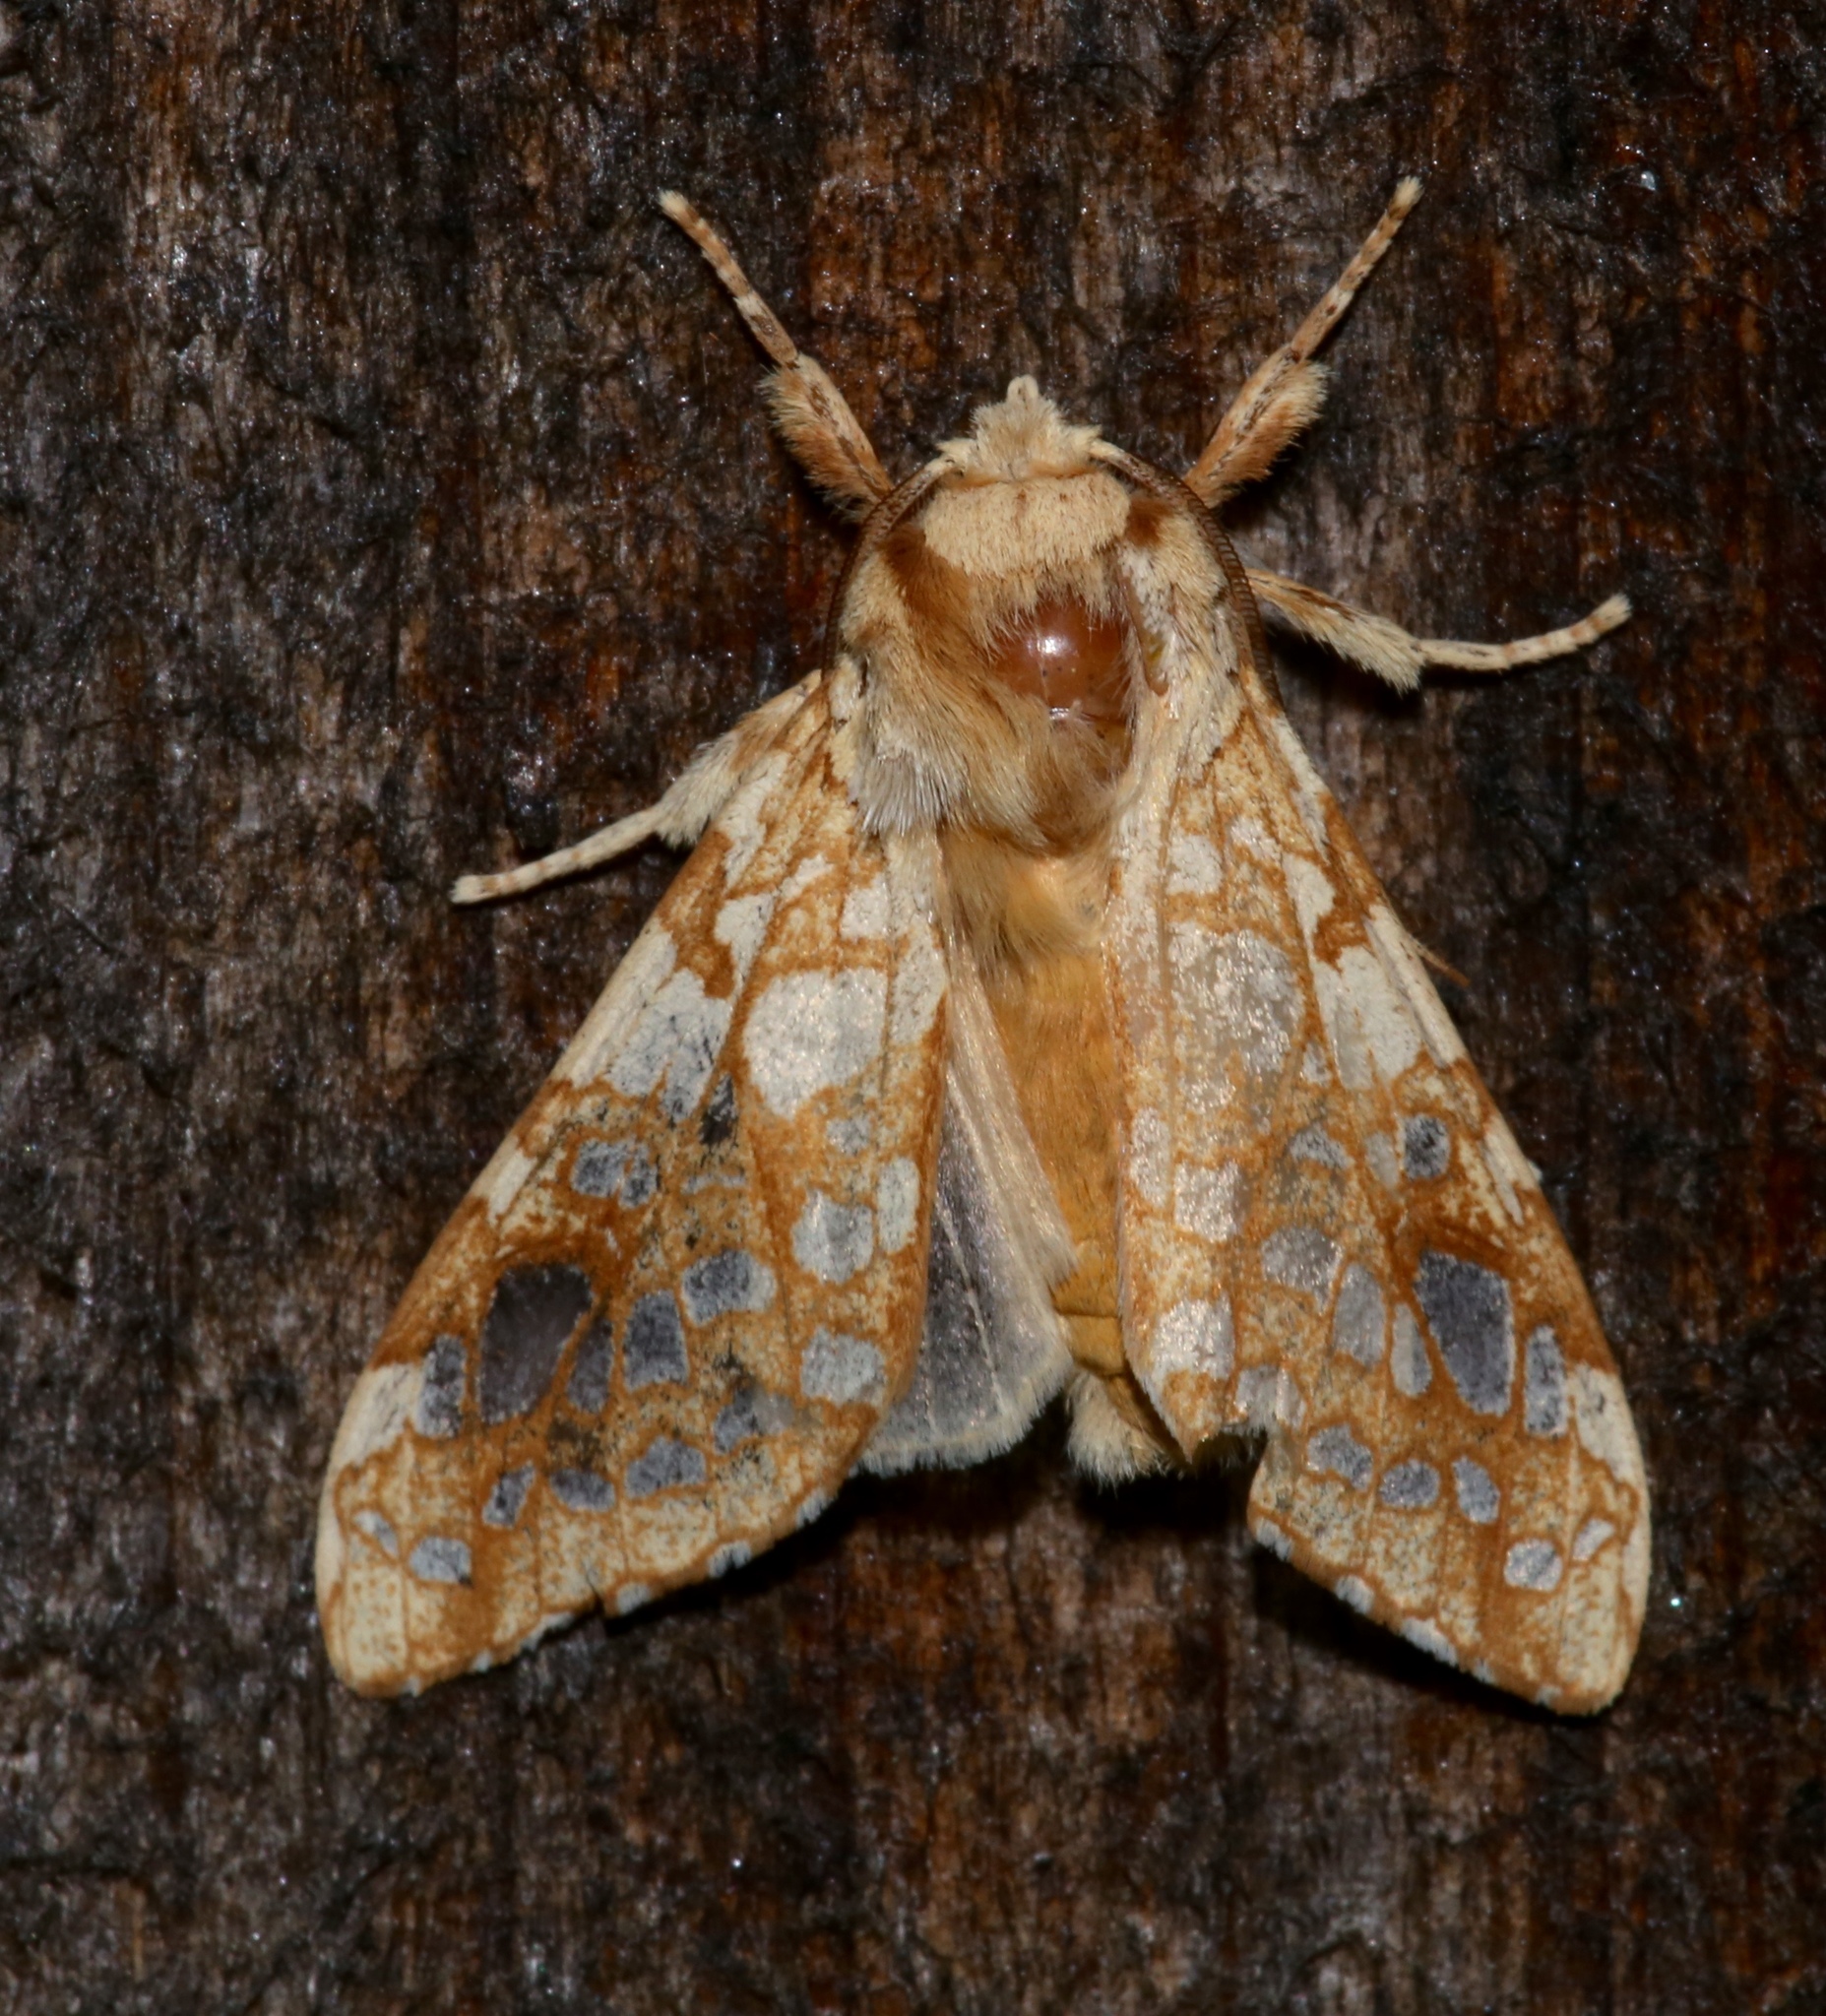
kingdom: Animalia
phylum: Arthropoda
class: Insecta
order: Lepidoptera
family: Erebidae
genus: Lophocampa
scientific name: Lophocampa caryae
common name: Hickory tussock moth
